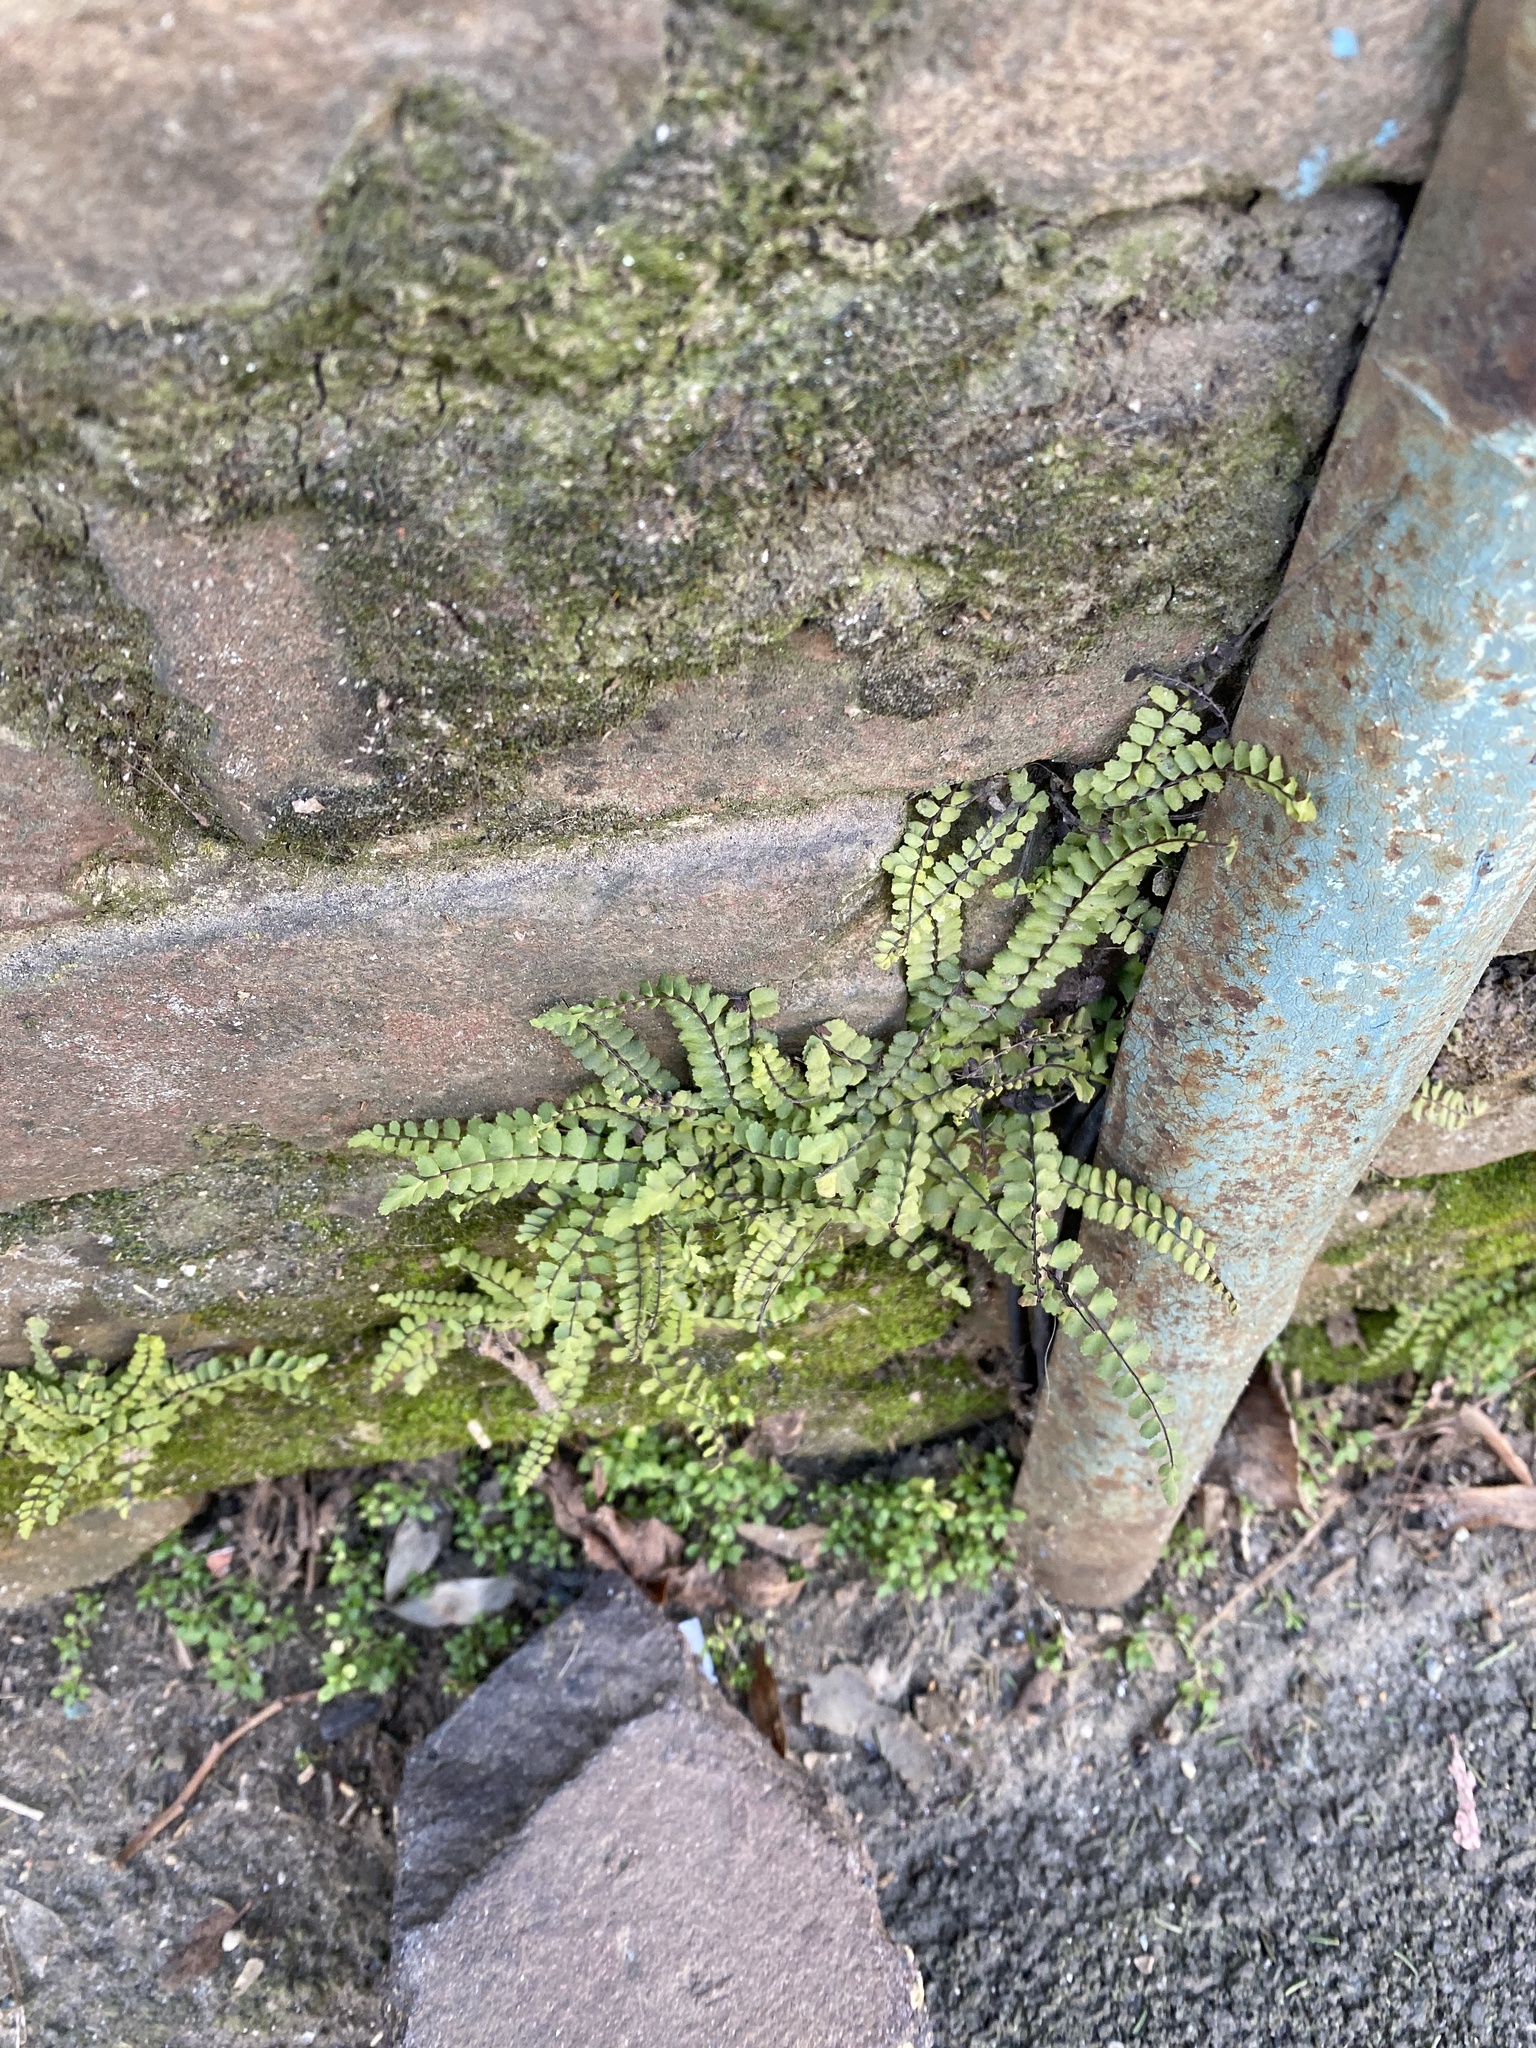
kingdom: Plantae
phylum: Tracheophyta
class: Polypodiopsida
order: Polypodiales
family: Aspleniaceae
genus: Asplenium
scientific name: Asplenium trichomanes
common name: Maidenhair spleenwort
